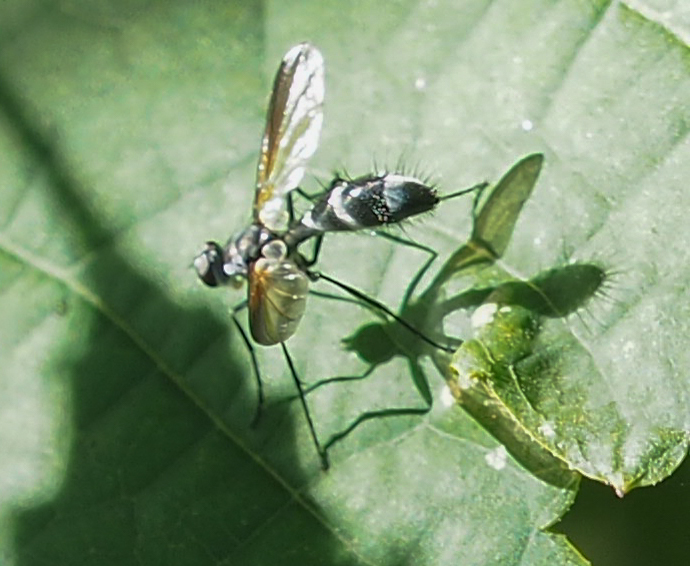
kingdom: Animalia
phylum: Arthropoda
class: Insecta
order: Diptera
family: Tachinidae
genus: Cordyligaster
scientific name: Cordyligaster septentrionalis
